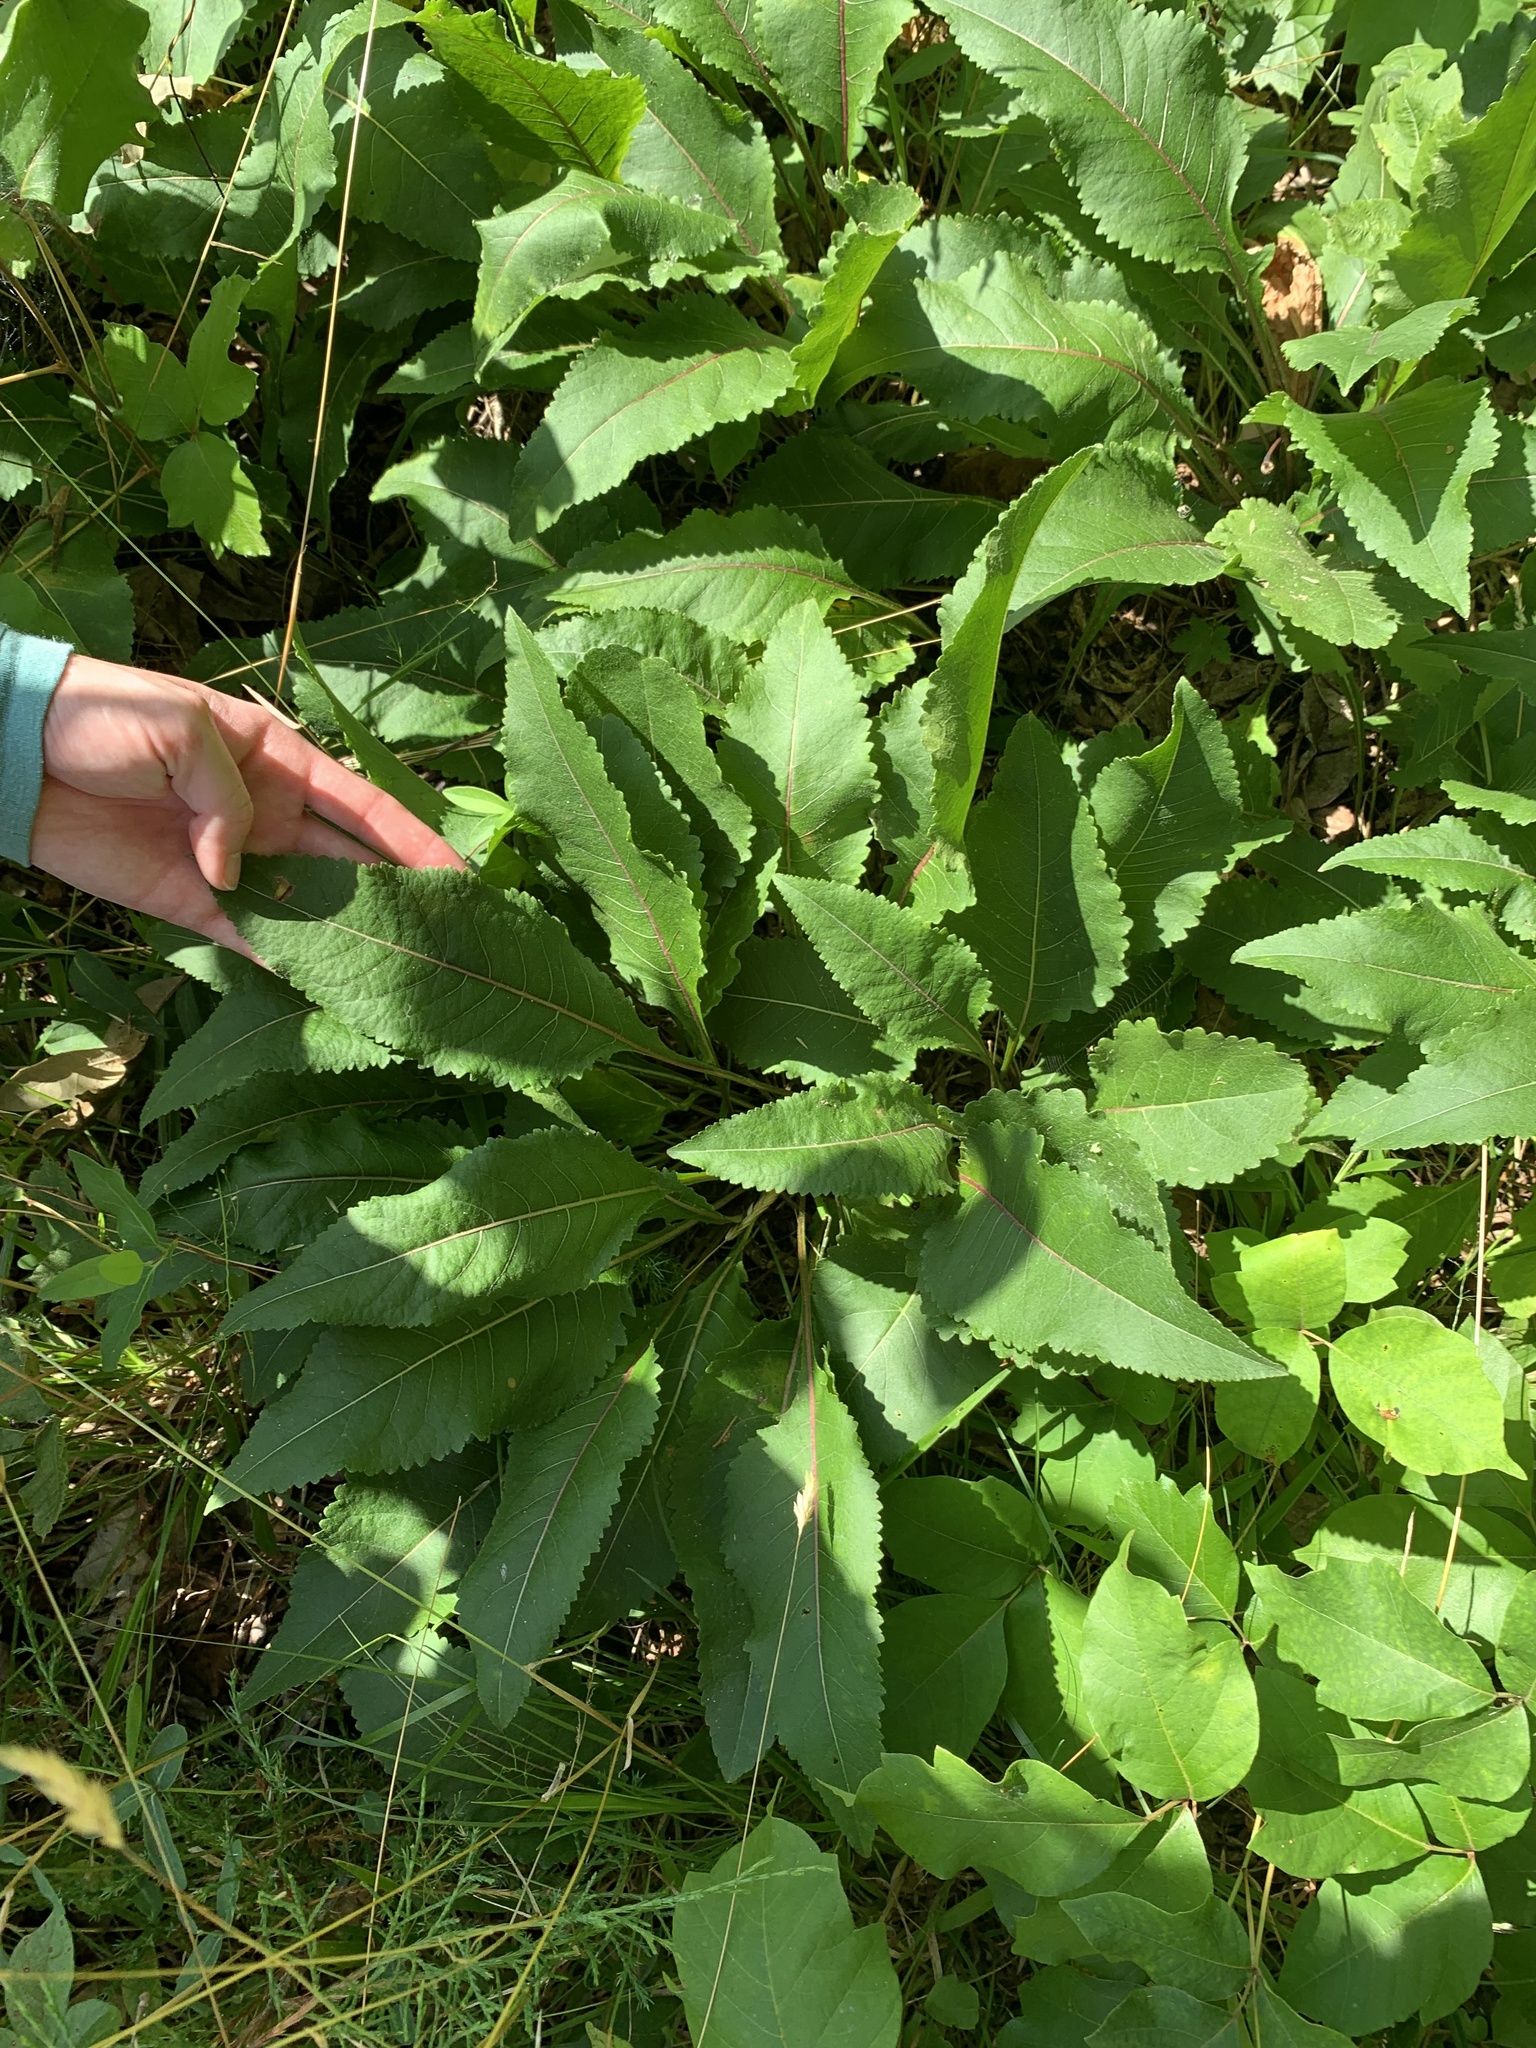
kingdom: Plantae
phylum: Tracheophyta
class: Magnoliopsida
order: Asterales
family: Asteraceae
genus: Parthenium
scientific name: Parthenium integrifolium
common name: American feverfew
